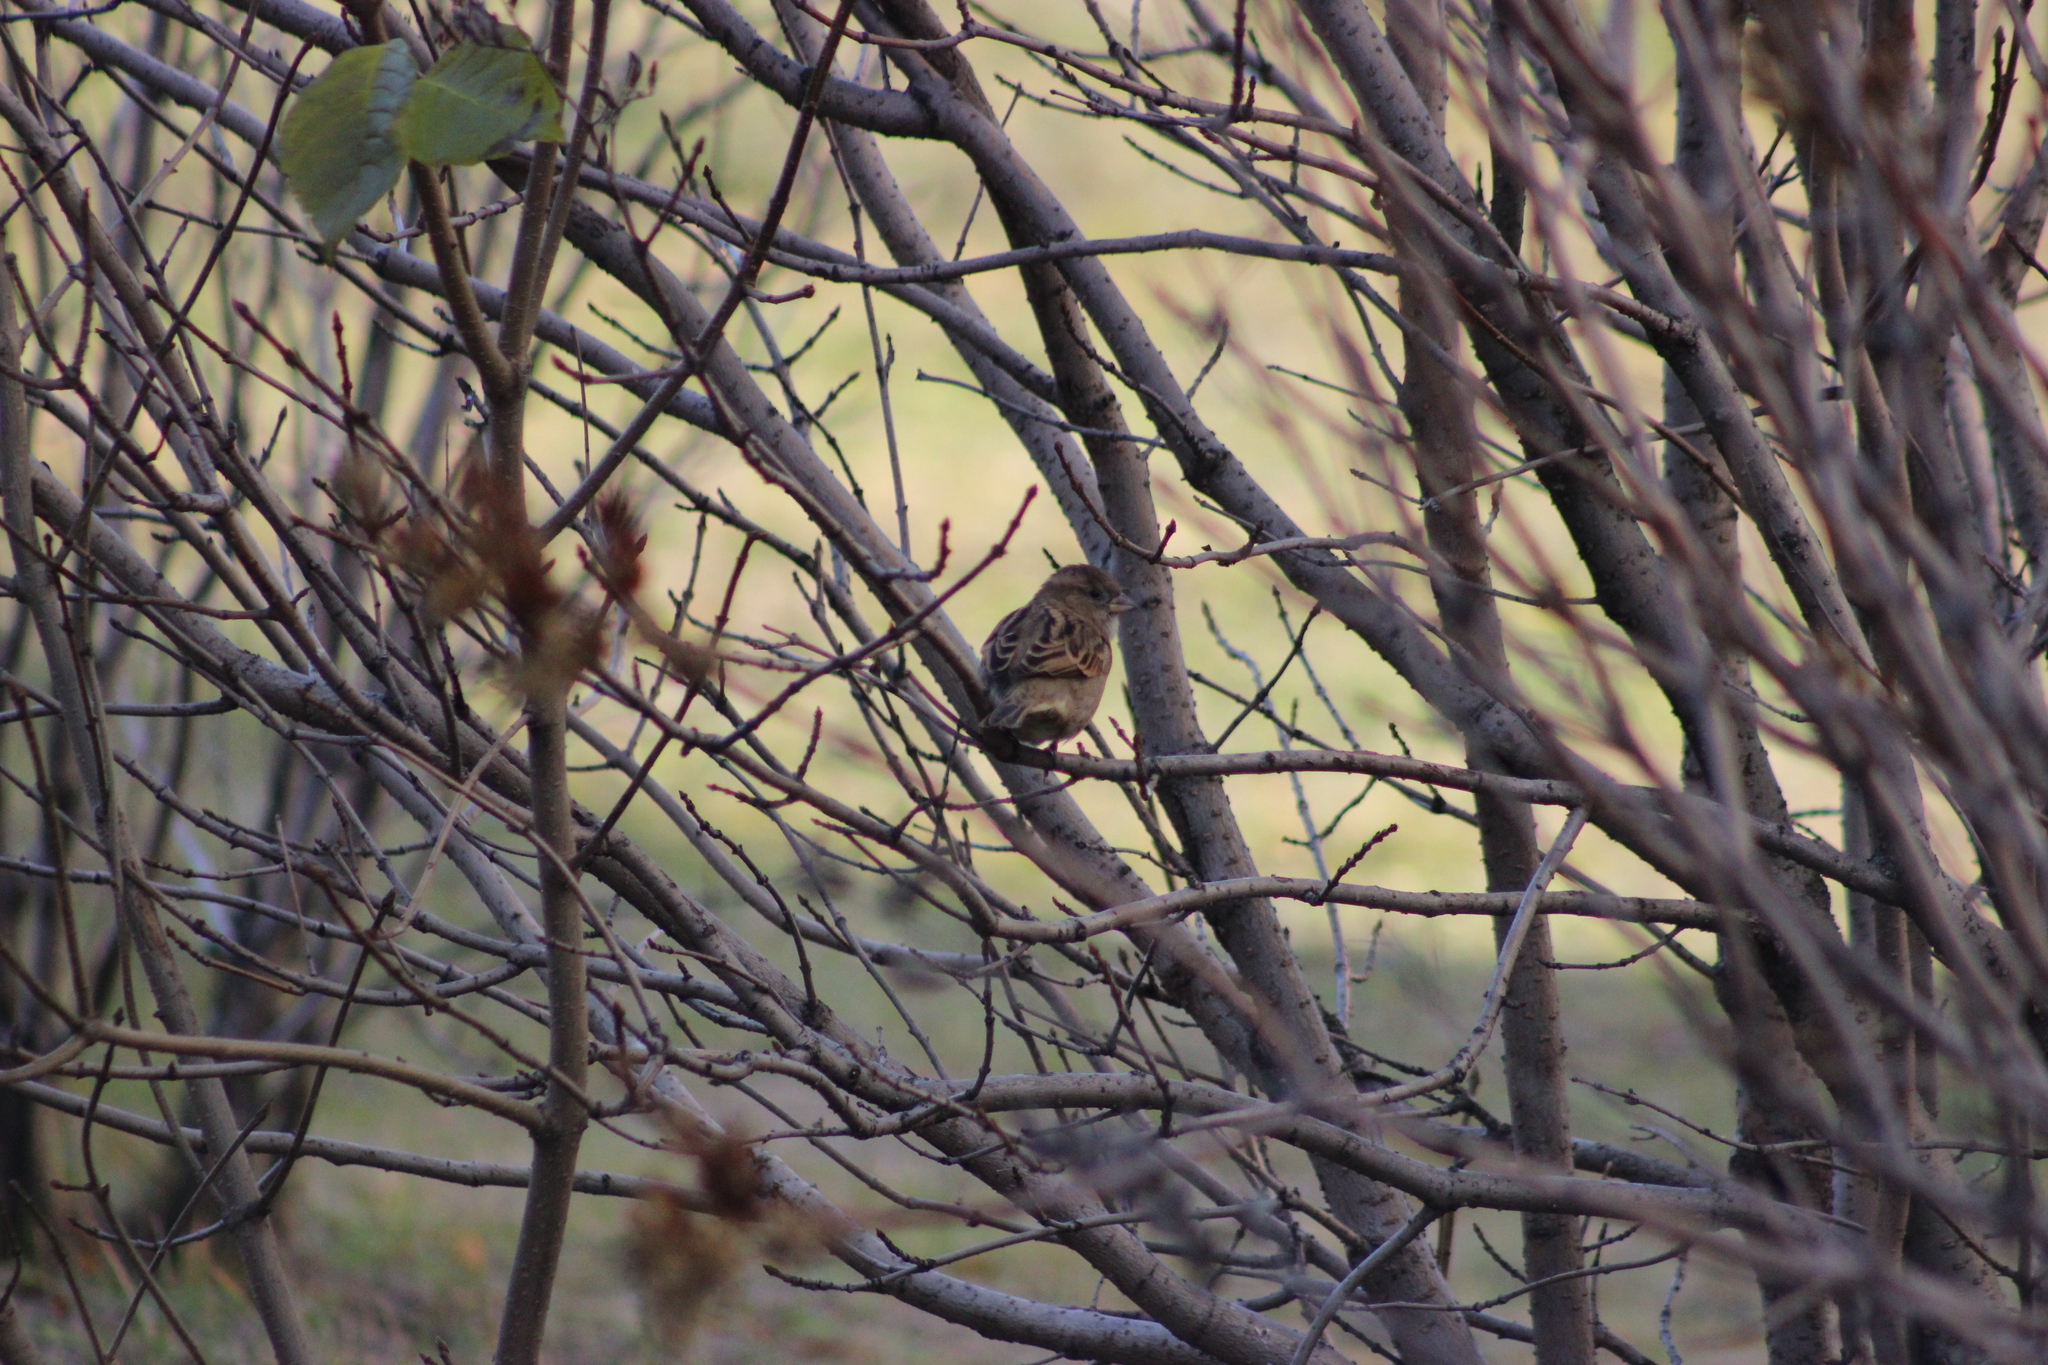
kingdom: Animalia
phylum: Chordata
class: Aves
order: Passeriformes
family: Passeridae
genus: Passer
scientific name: Passer montanus
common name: Eurasian tree sparrow
